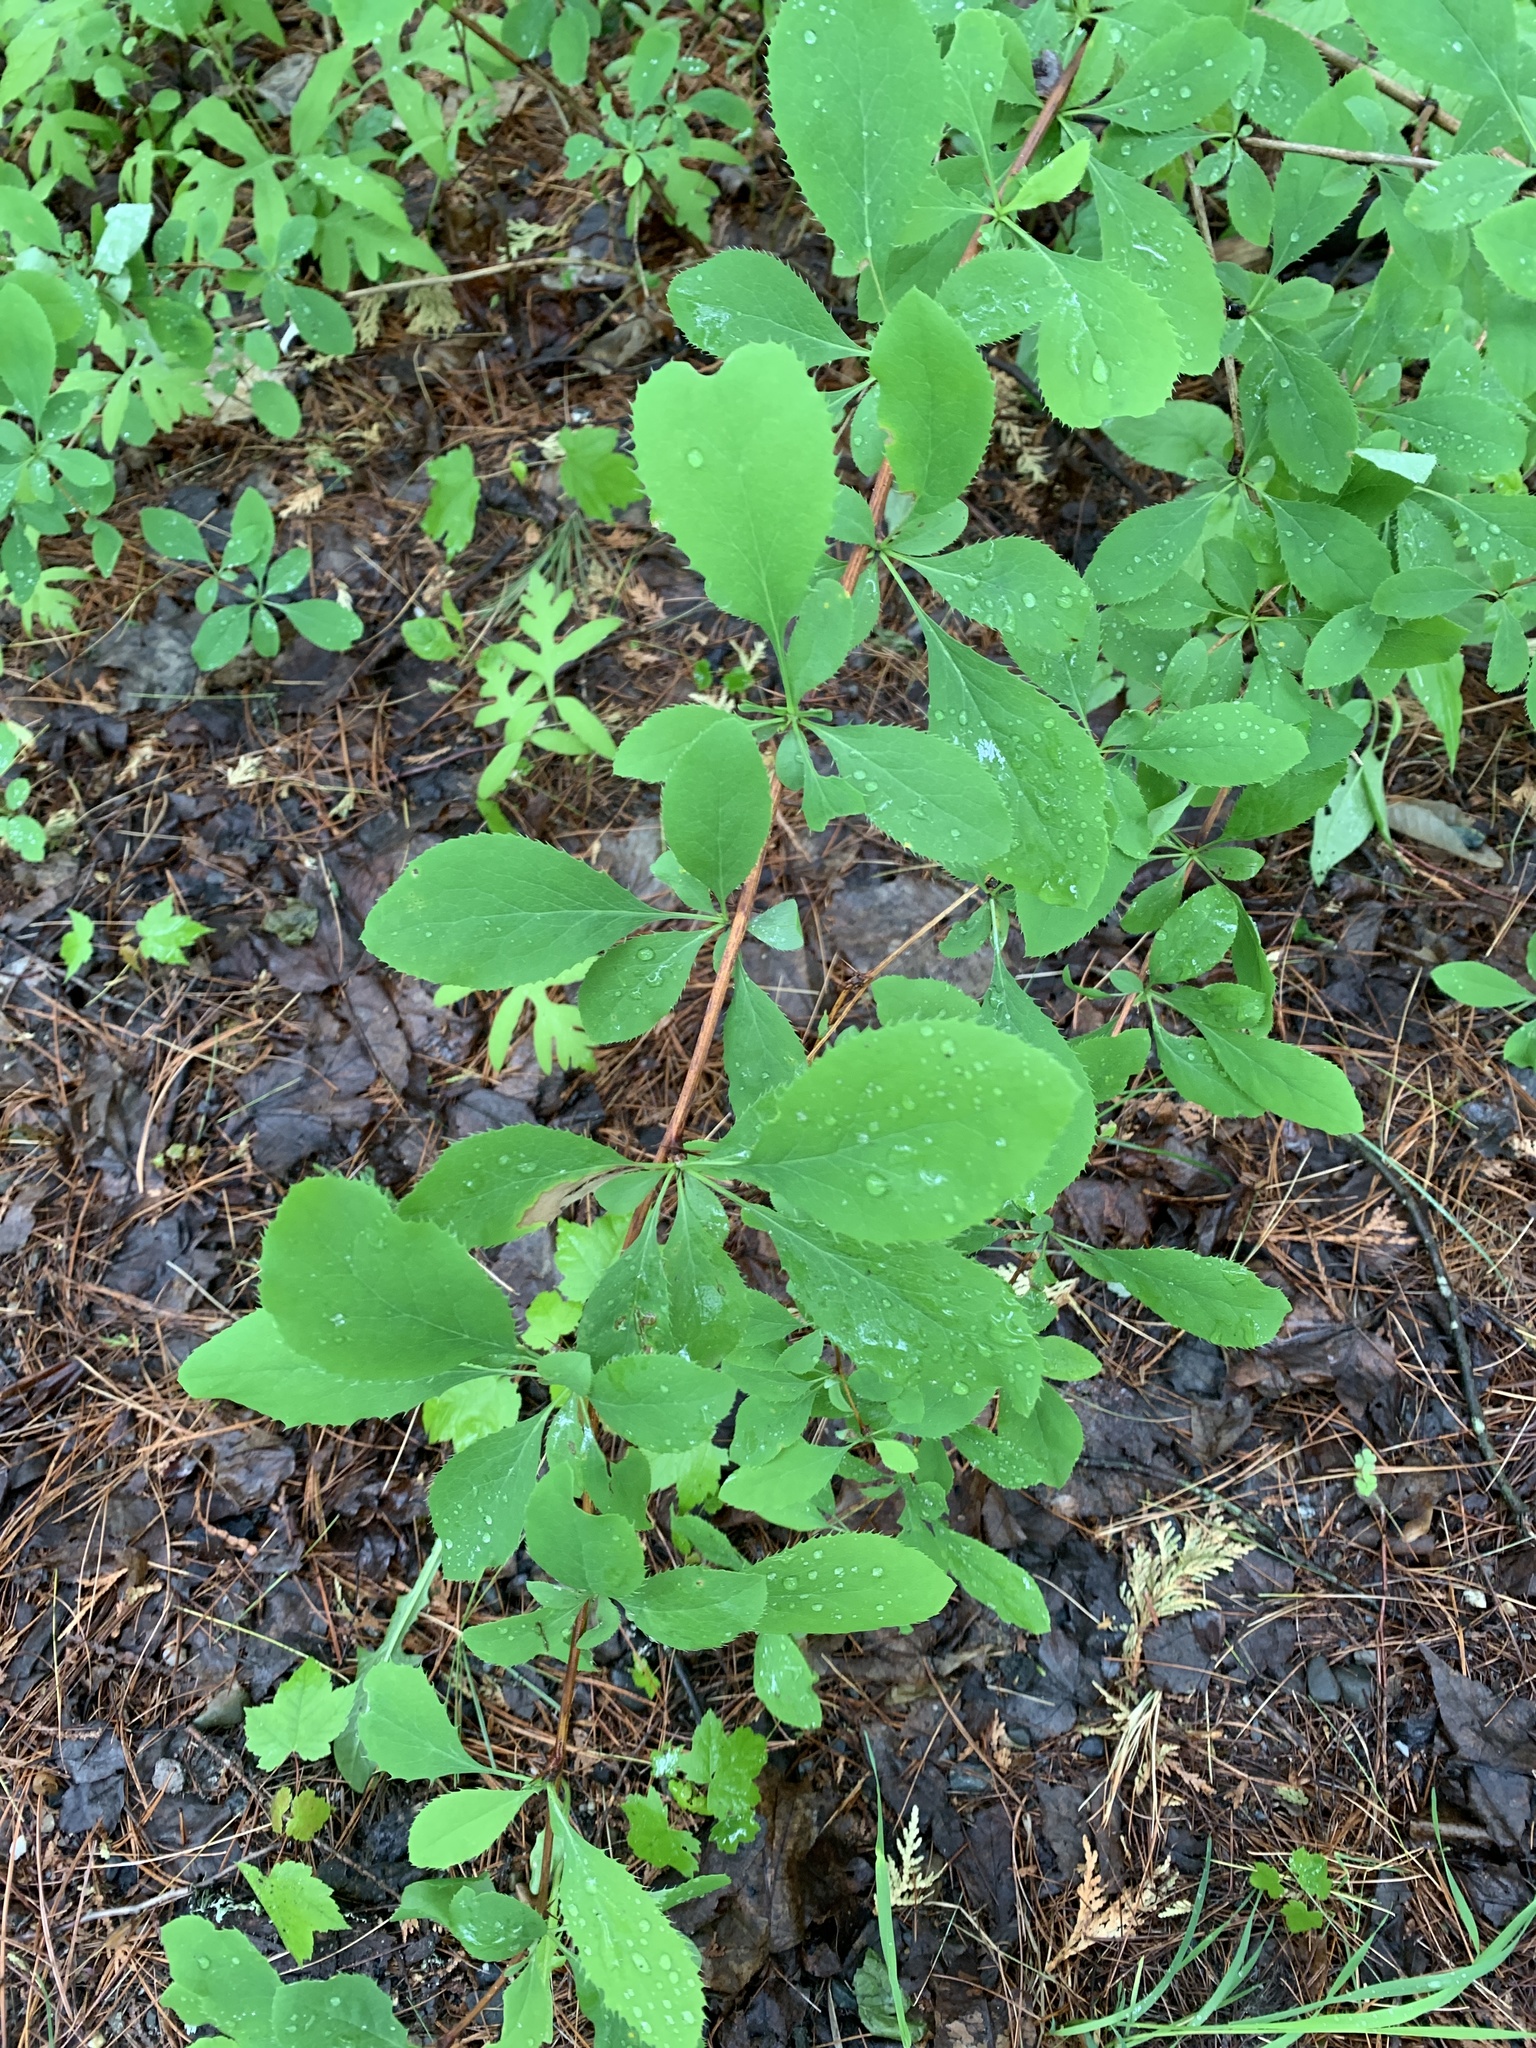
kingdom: Plantae
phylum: Tracheophyta
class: Magnoliopsida
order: Ranunculales
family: Berberidaceae
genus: Berberis
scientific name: Berberis vulgaris
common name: Barberry
